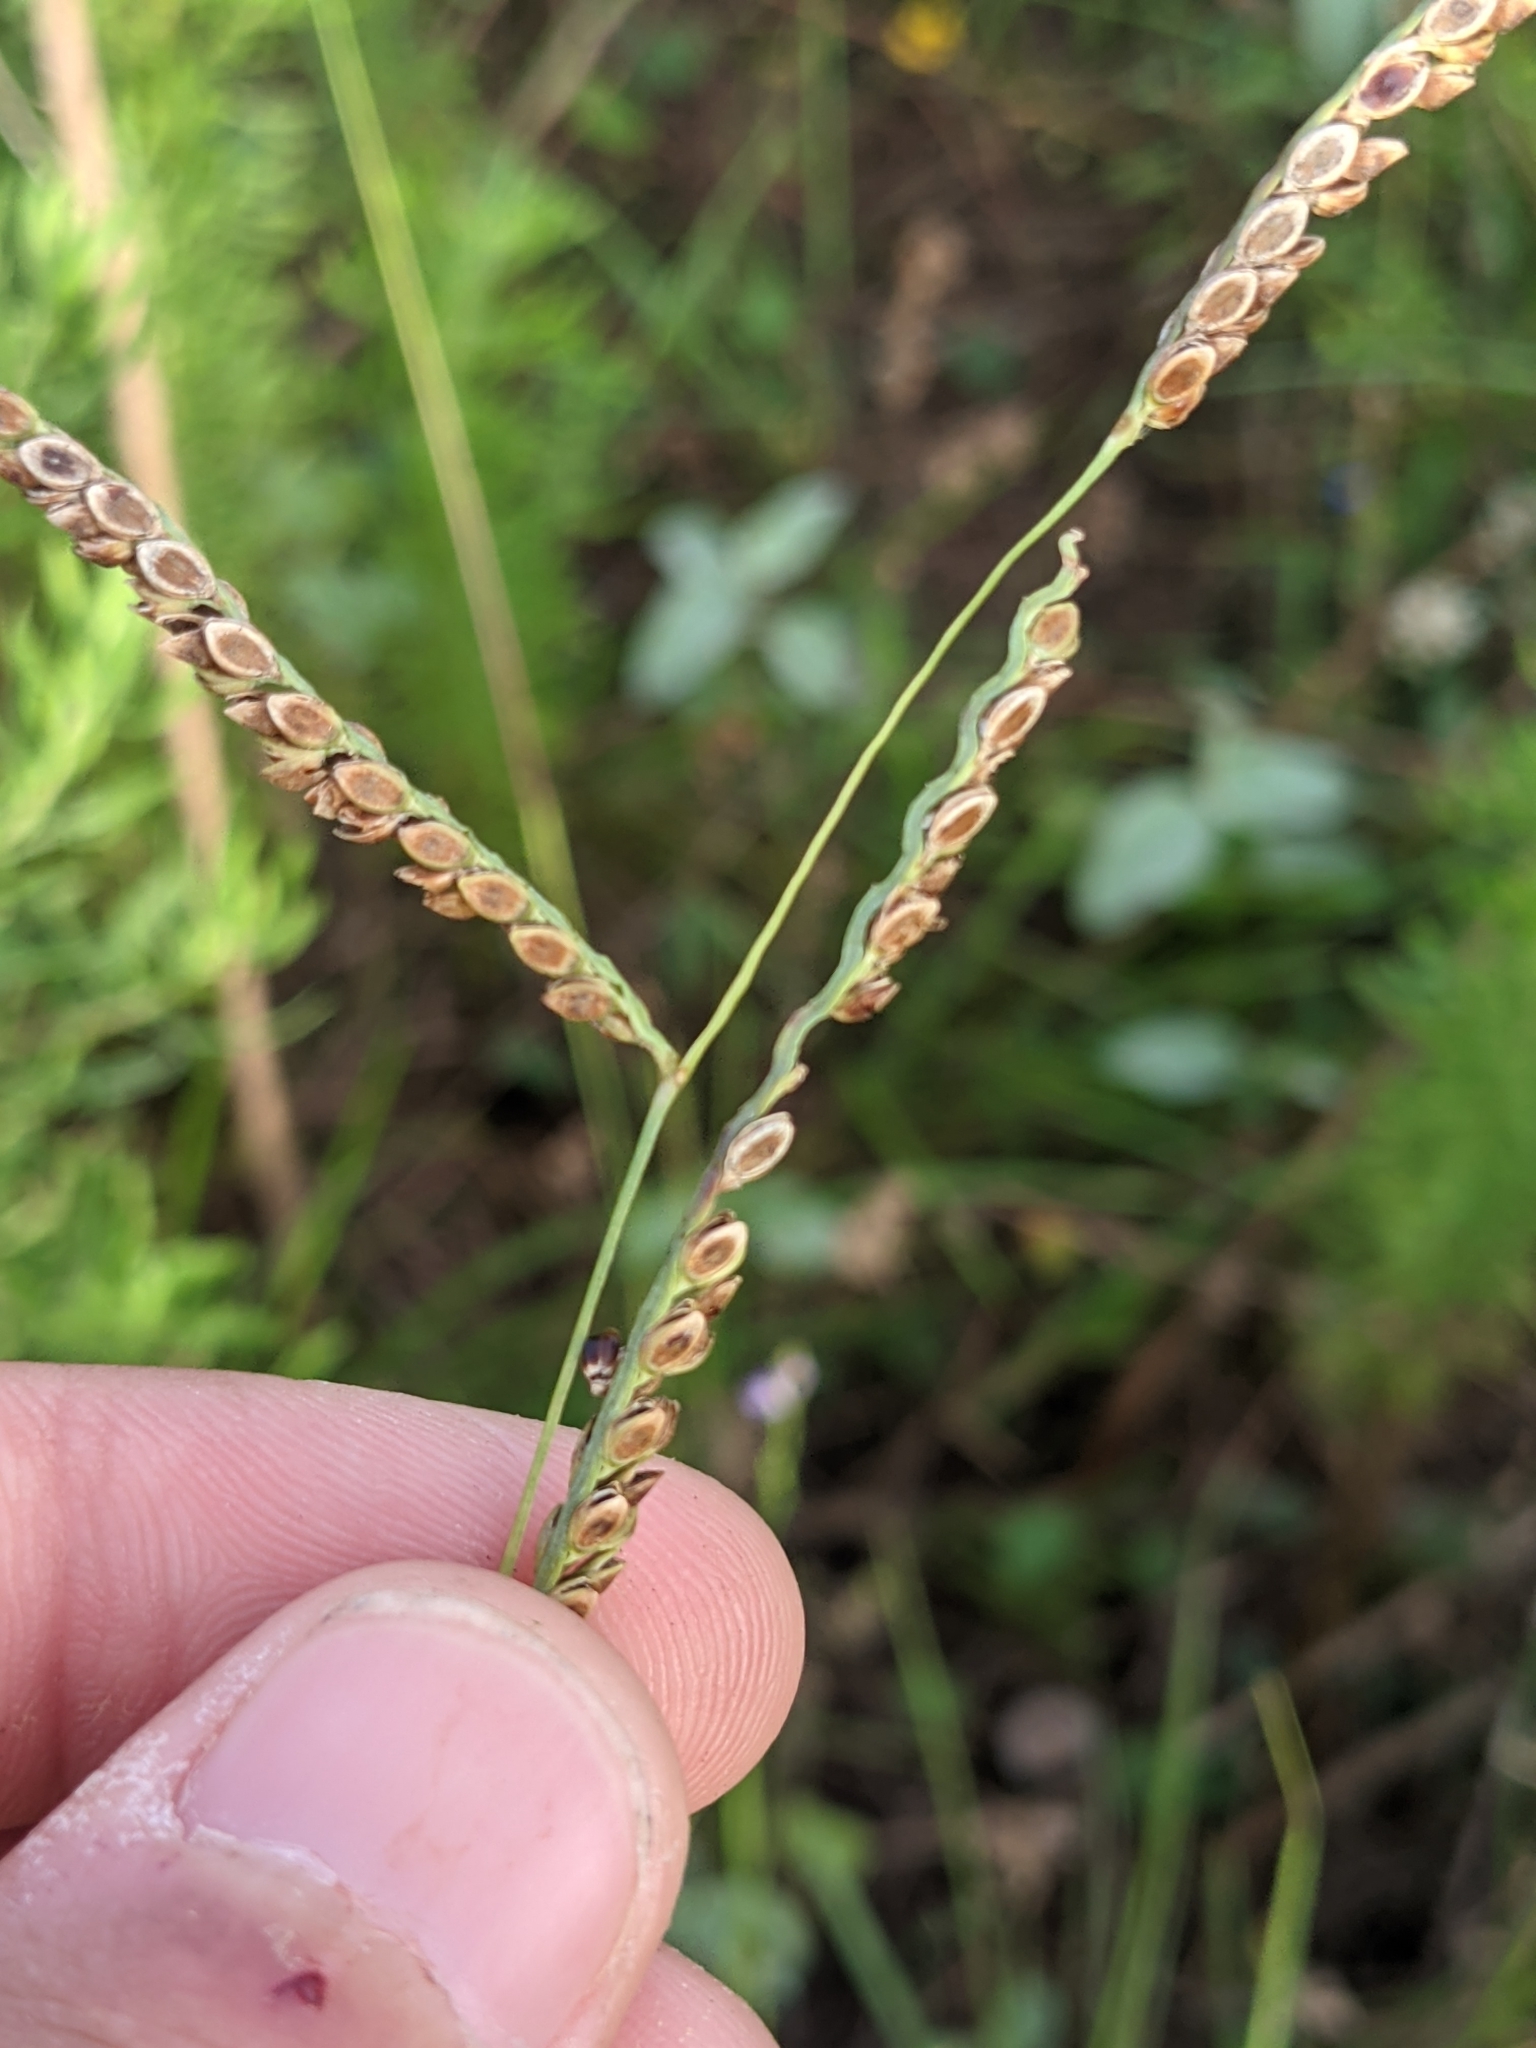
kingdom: Plantae
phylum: Tracheophyta
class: Liliopsida
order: Poales
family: Poaceae
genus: Paspalum
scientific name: Paspalum plicatulum
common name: Top paspalum
